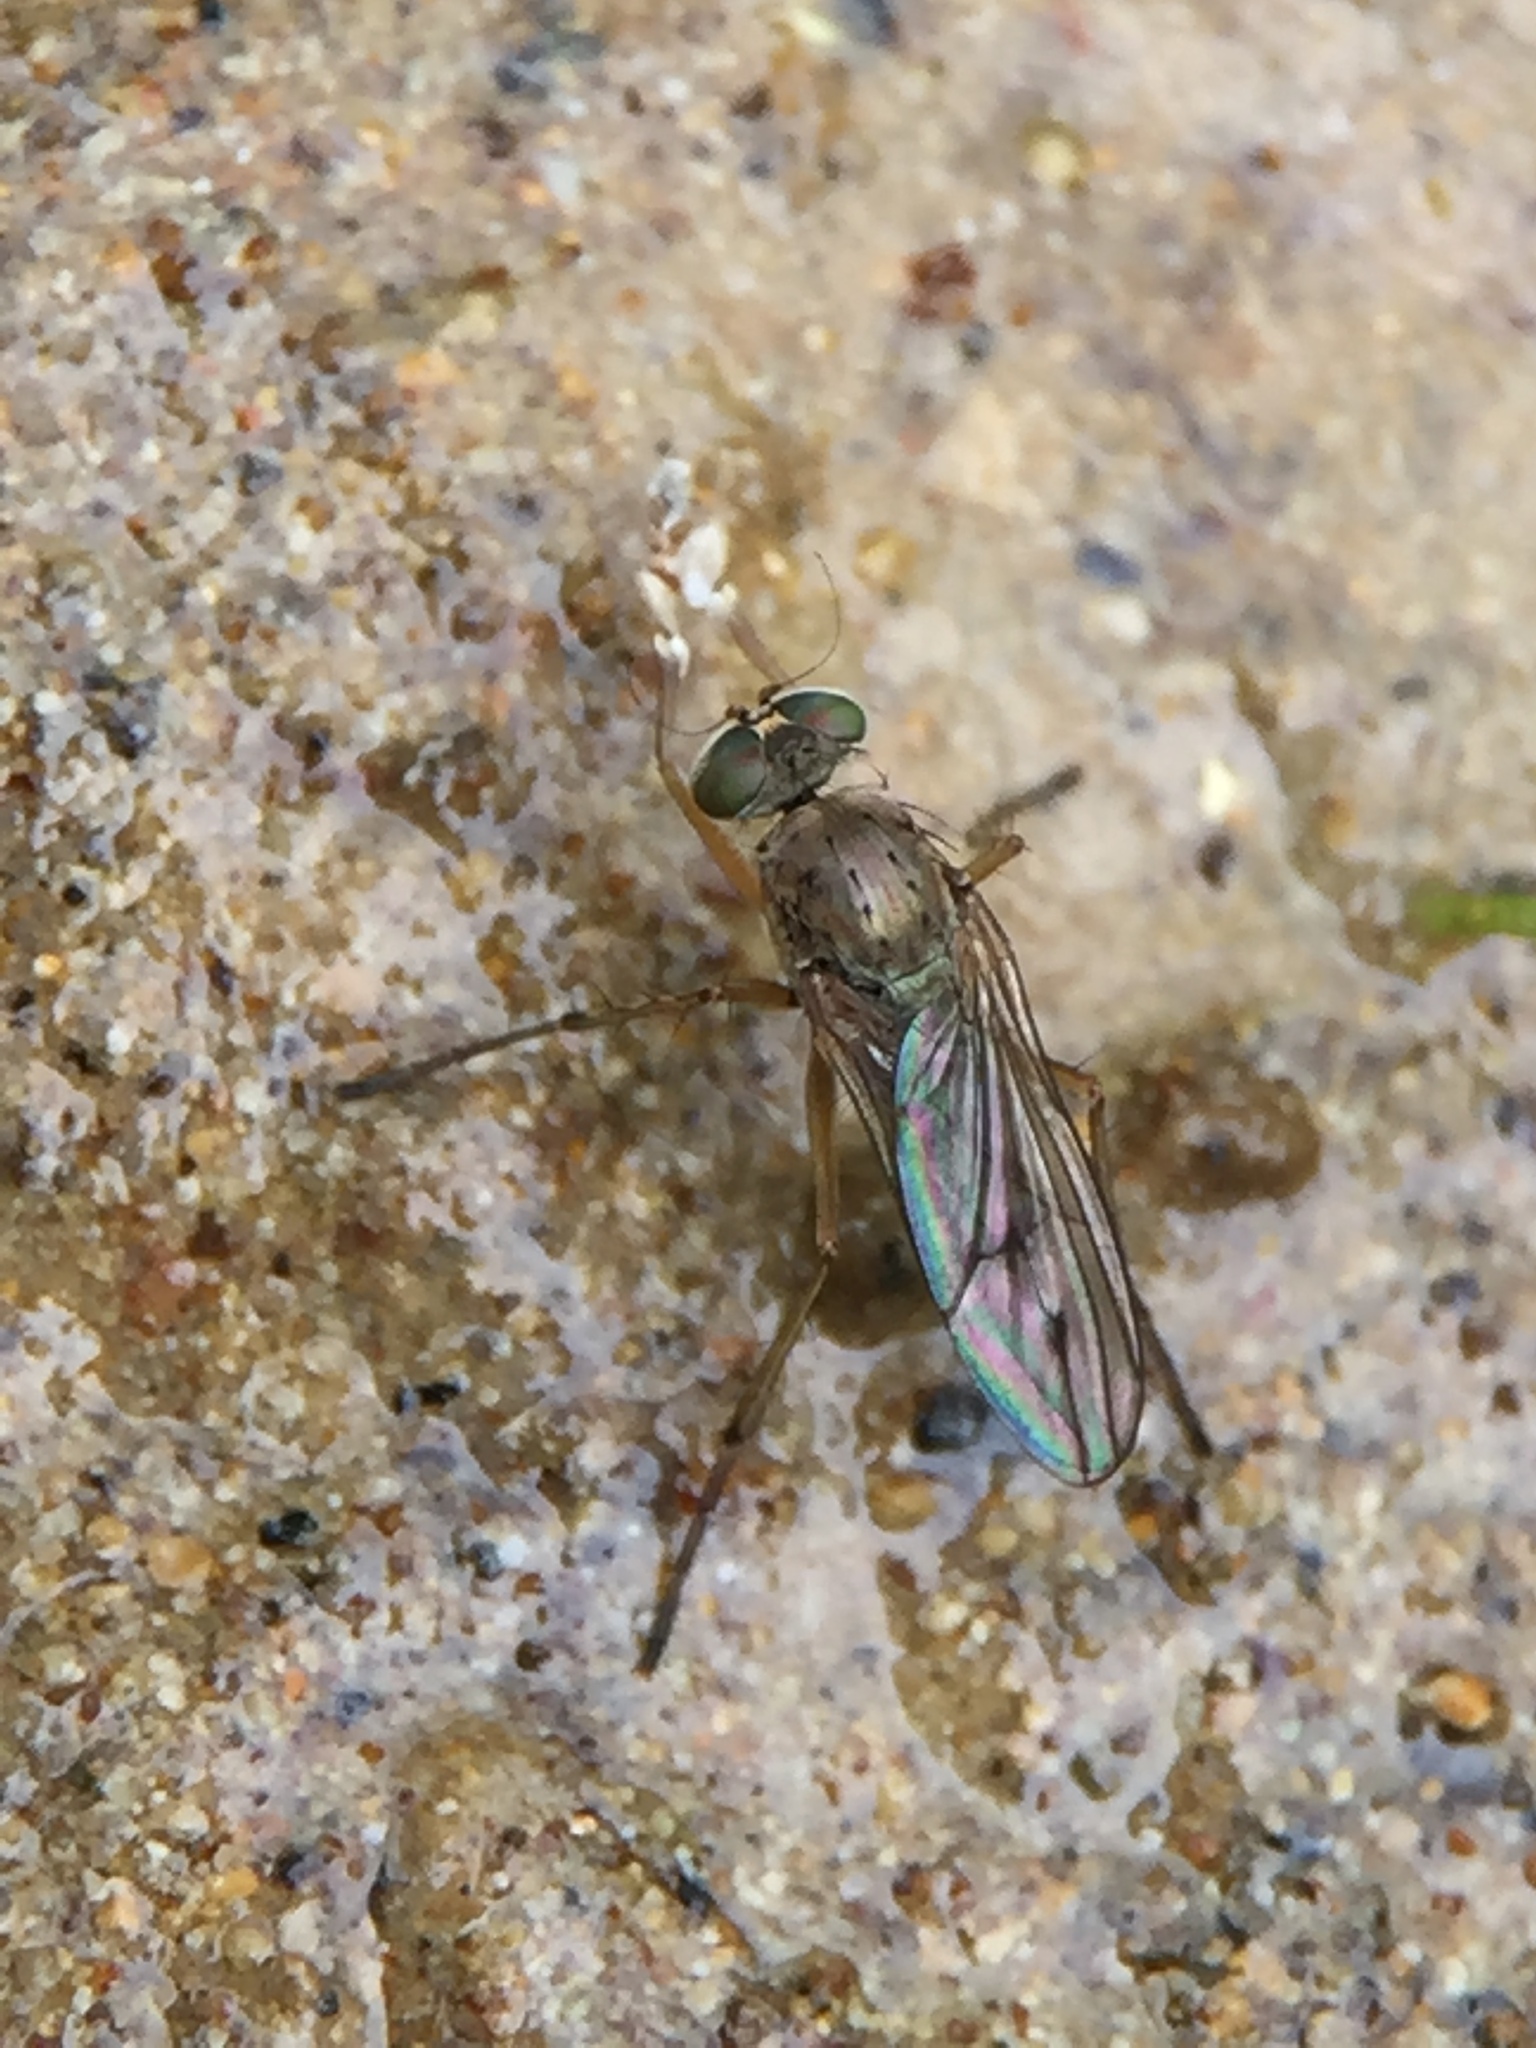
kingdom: Animalia
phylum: Arthropoda
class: Insecta
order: Diptera
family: Dolichopodidae
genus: Helichochaetus
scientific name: Helichochaetus discifer
